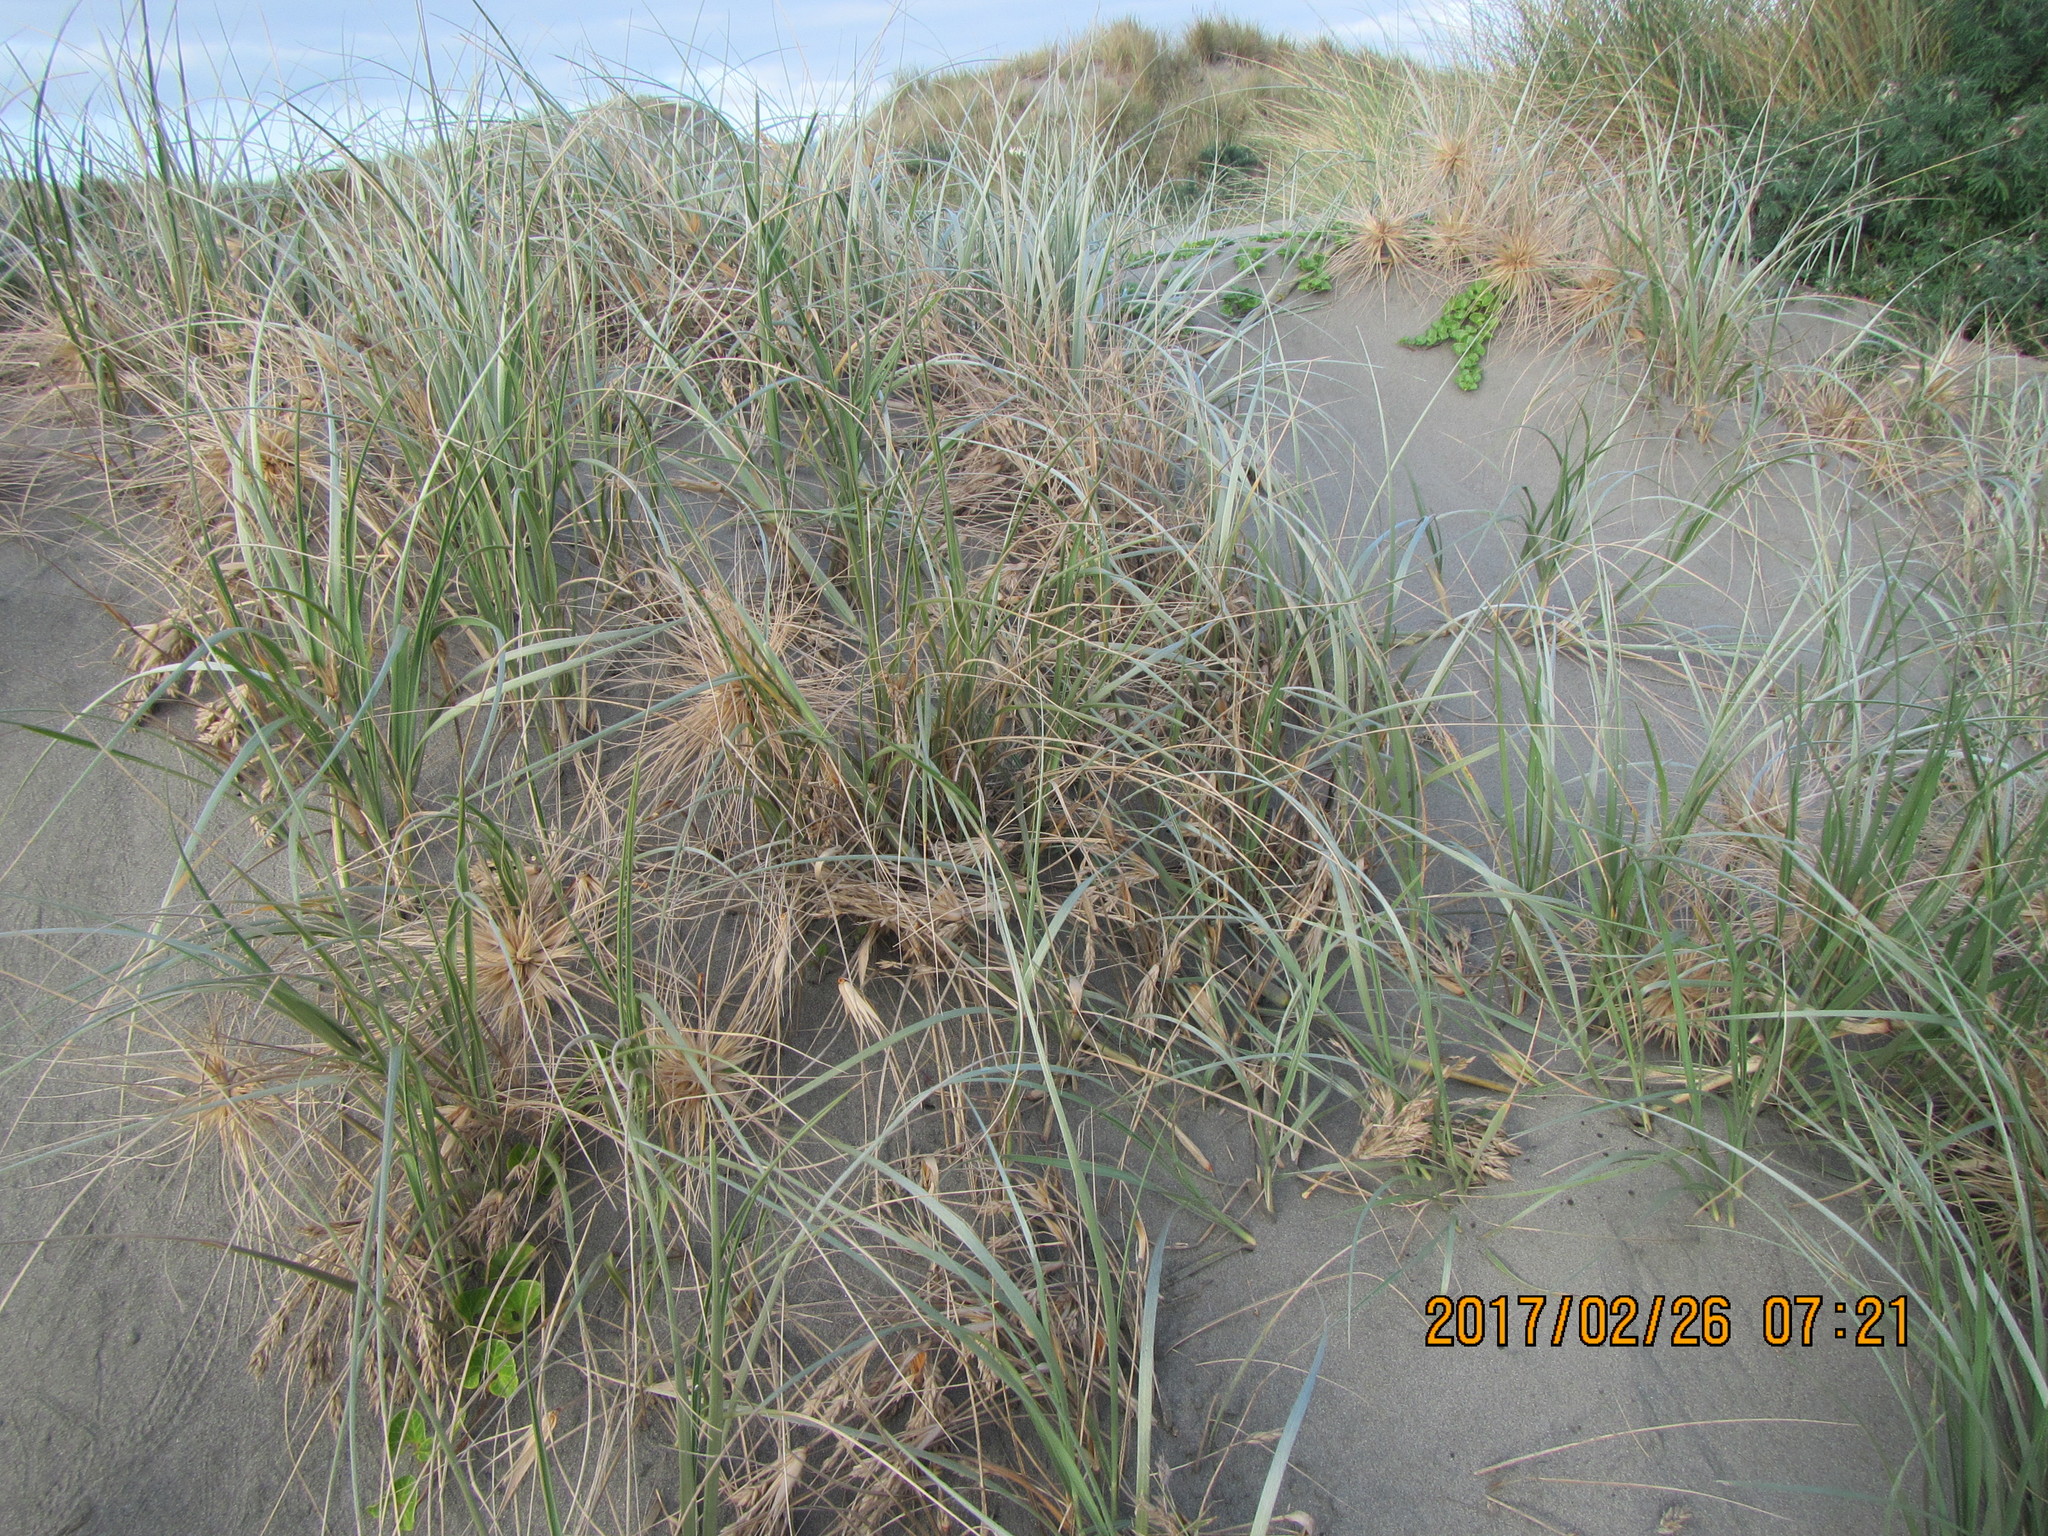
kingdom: Plantae
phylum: Tracheophyta
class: Liliopsida
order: Poales
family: Poaceae
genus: Spinifex
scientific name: Spinifex sericeus
